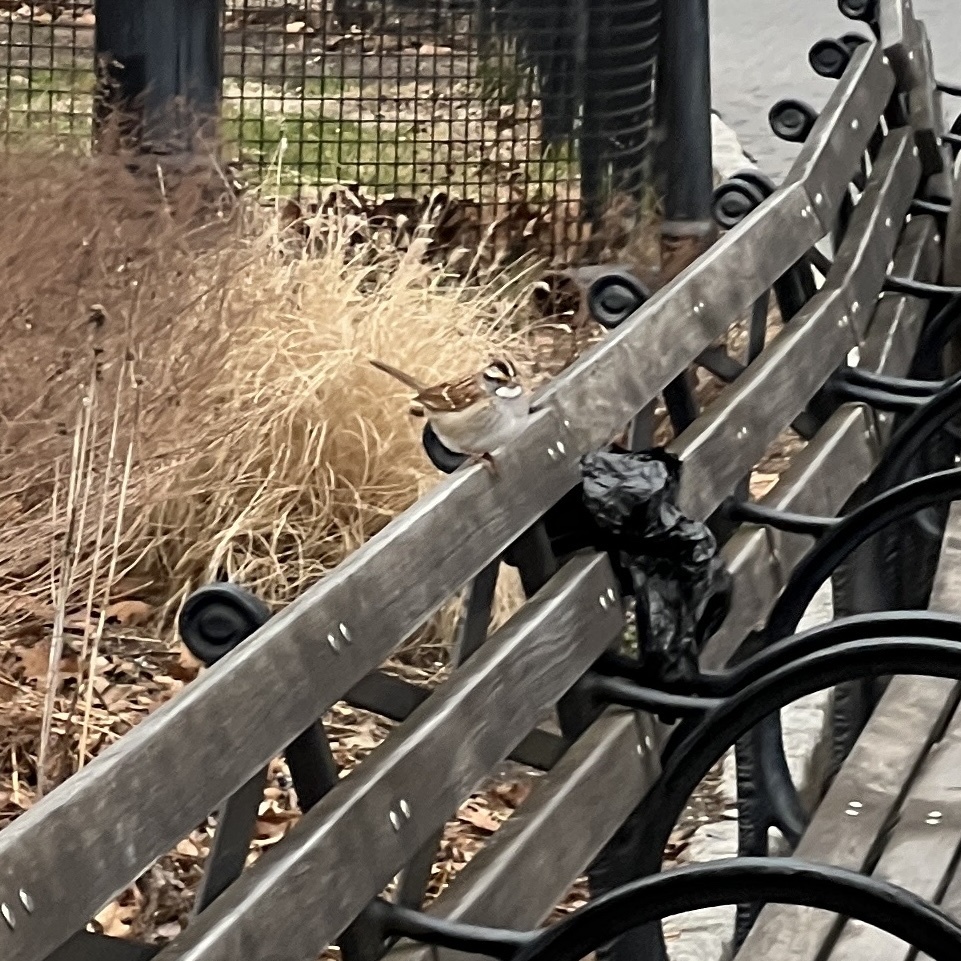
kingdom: Animalia
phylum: Chordata
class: Aves
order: Passeriformes
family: Passerellidae
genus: Zonotrichia
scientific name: Zonotrichia albicollis
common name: White-throated sparrow
